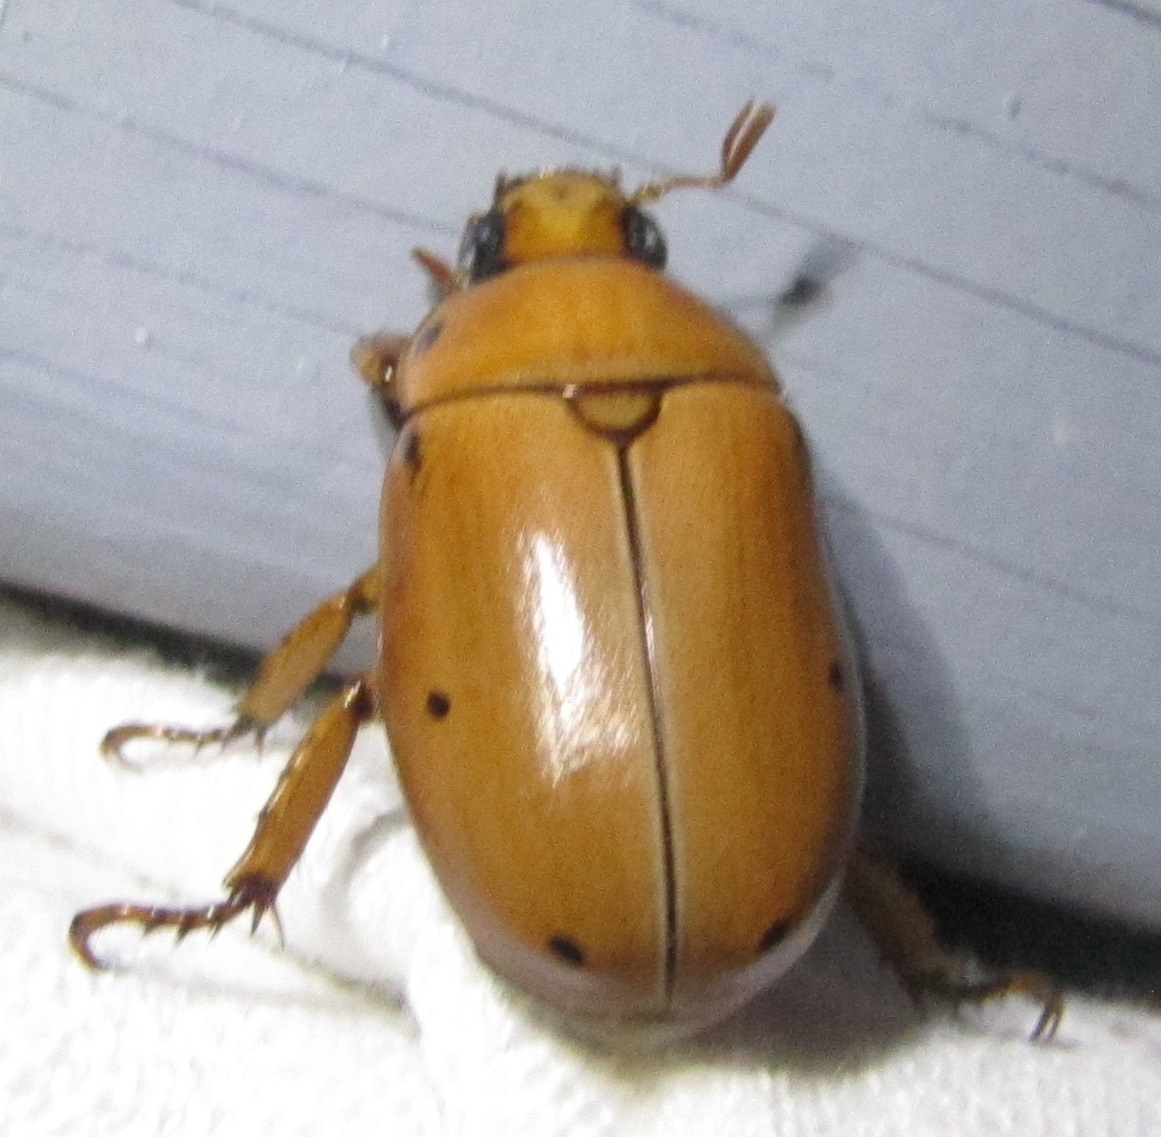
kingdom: Animalia
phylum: Arthropoda
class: Insecta
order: Coleoptera
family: Scarabaeidae
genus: Pelidnota
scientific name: Pelidnota punctata
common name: Grapevine beetle
